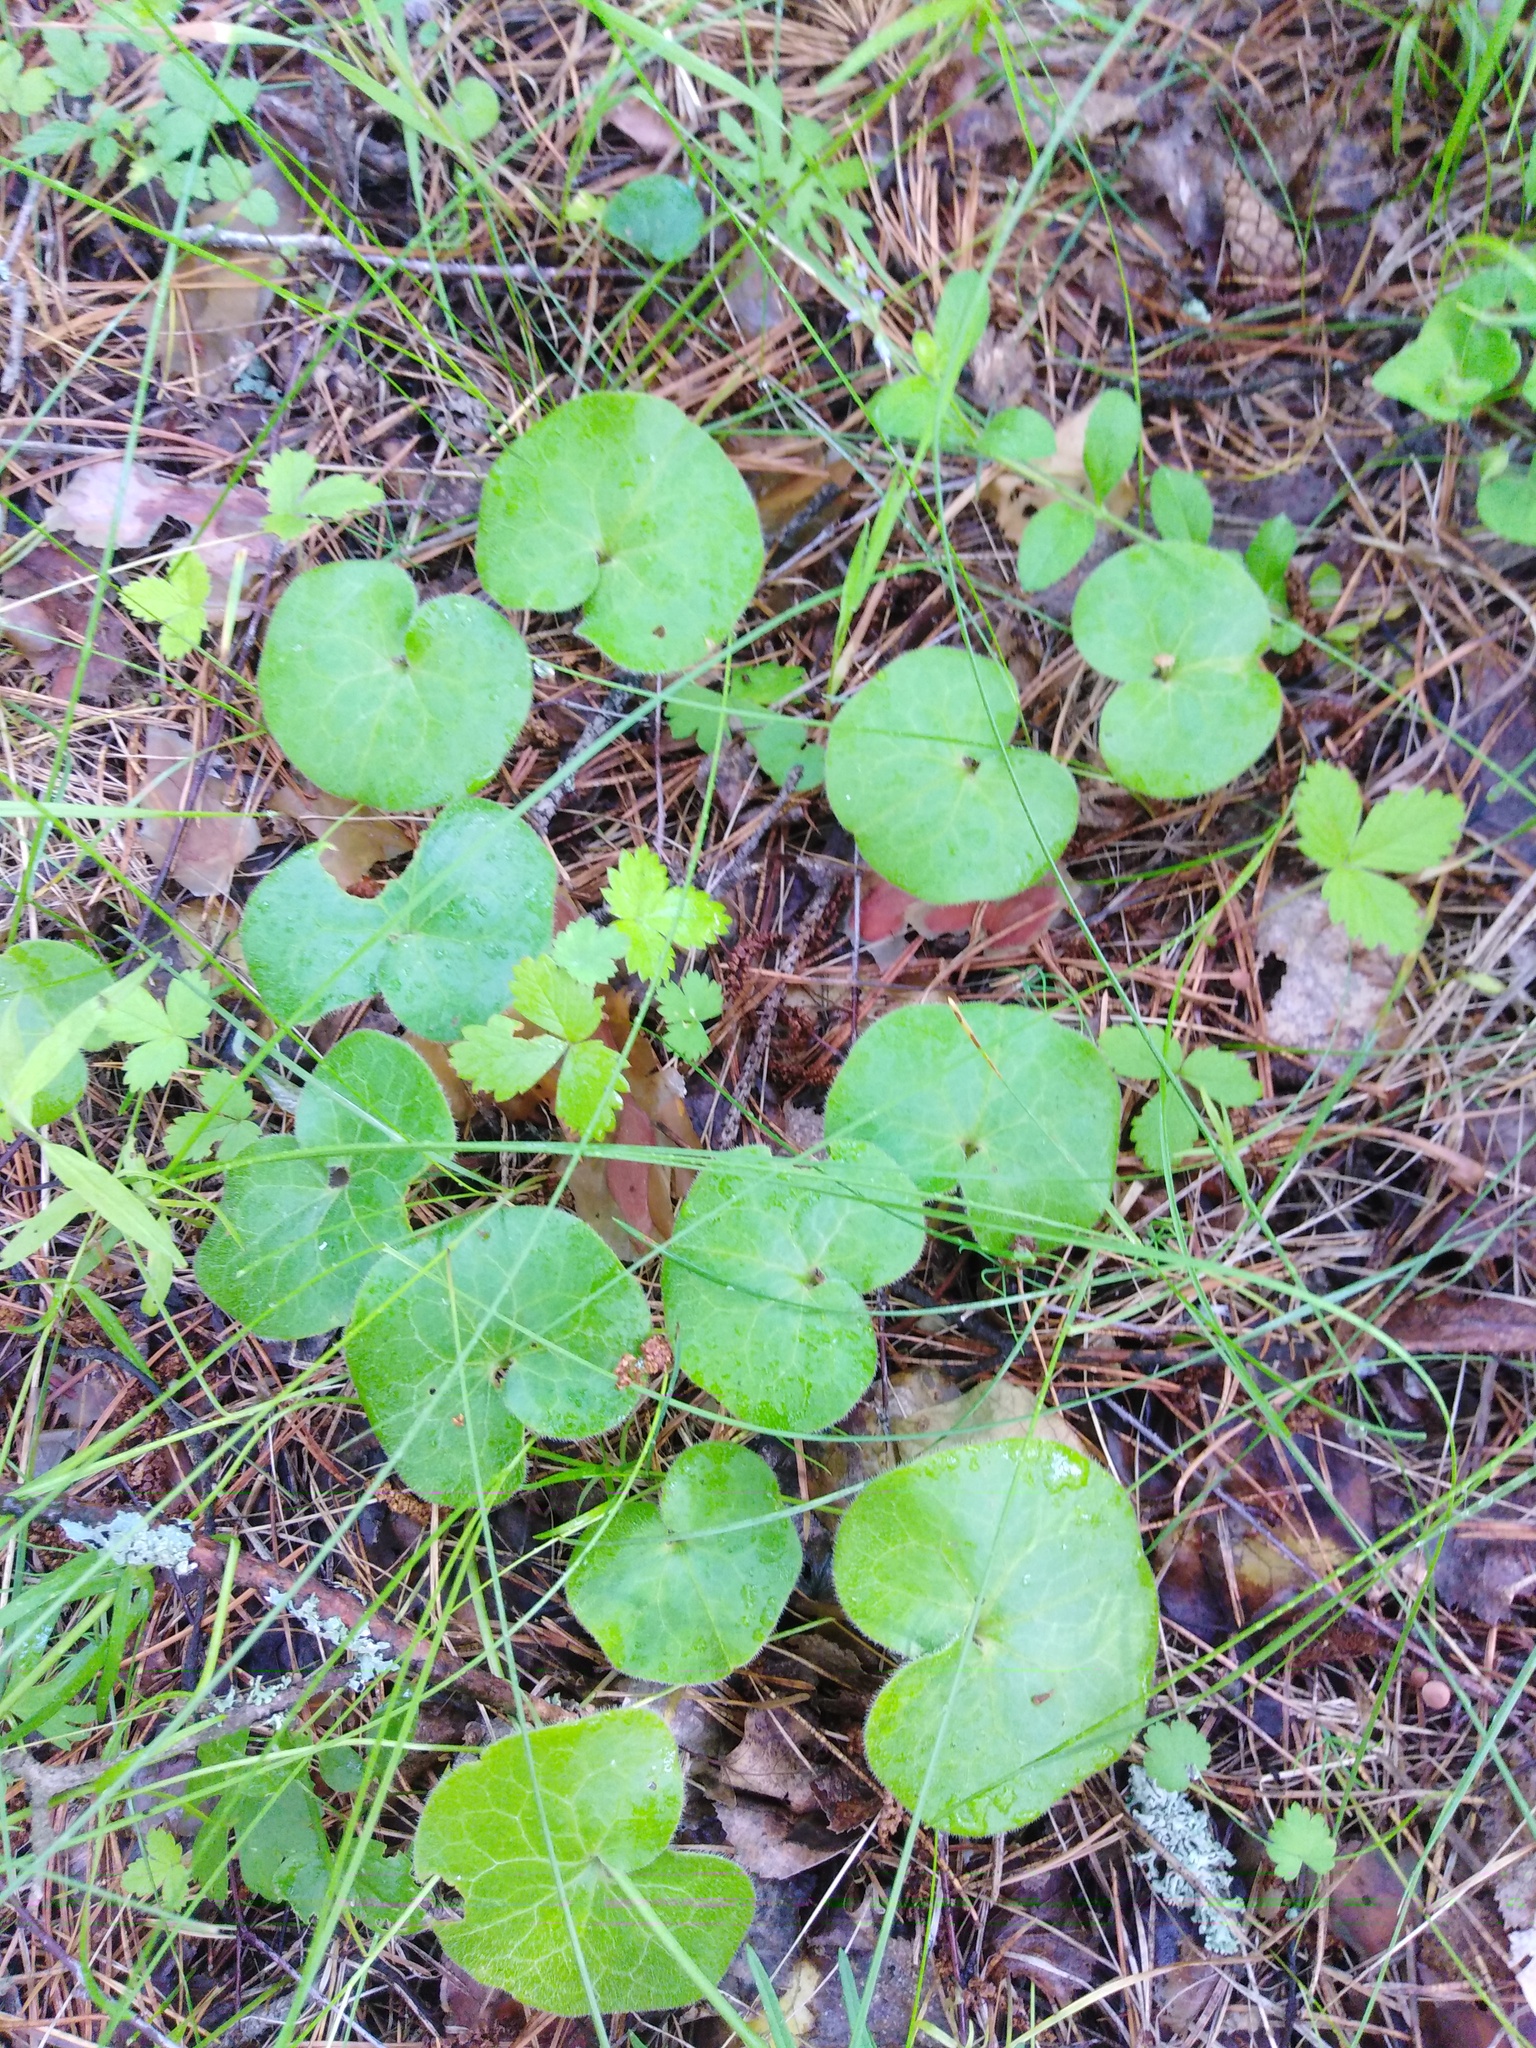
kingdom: Plantae
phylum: Tracheophyta
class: Magnoliopsida
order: Piperales
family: Aristolochiaceae
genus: Asarum
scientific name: Asarum europaeum
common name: Asarabacca
